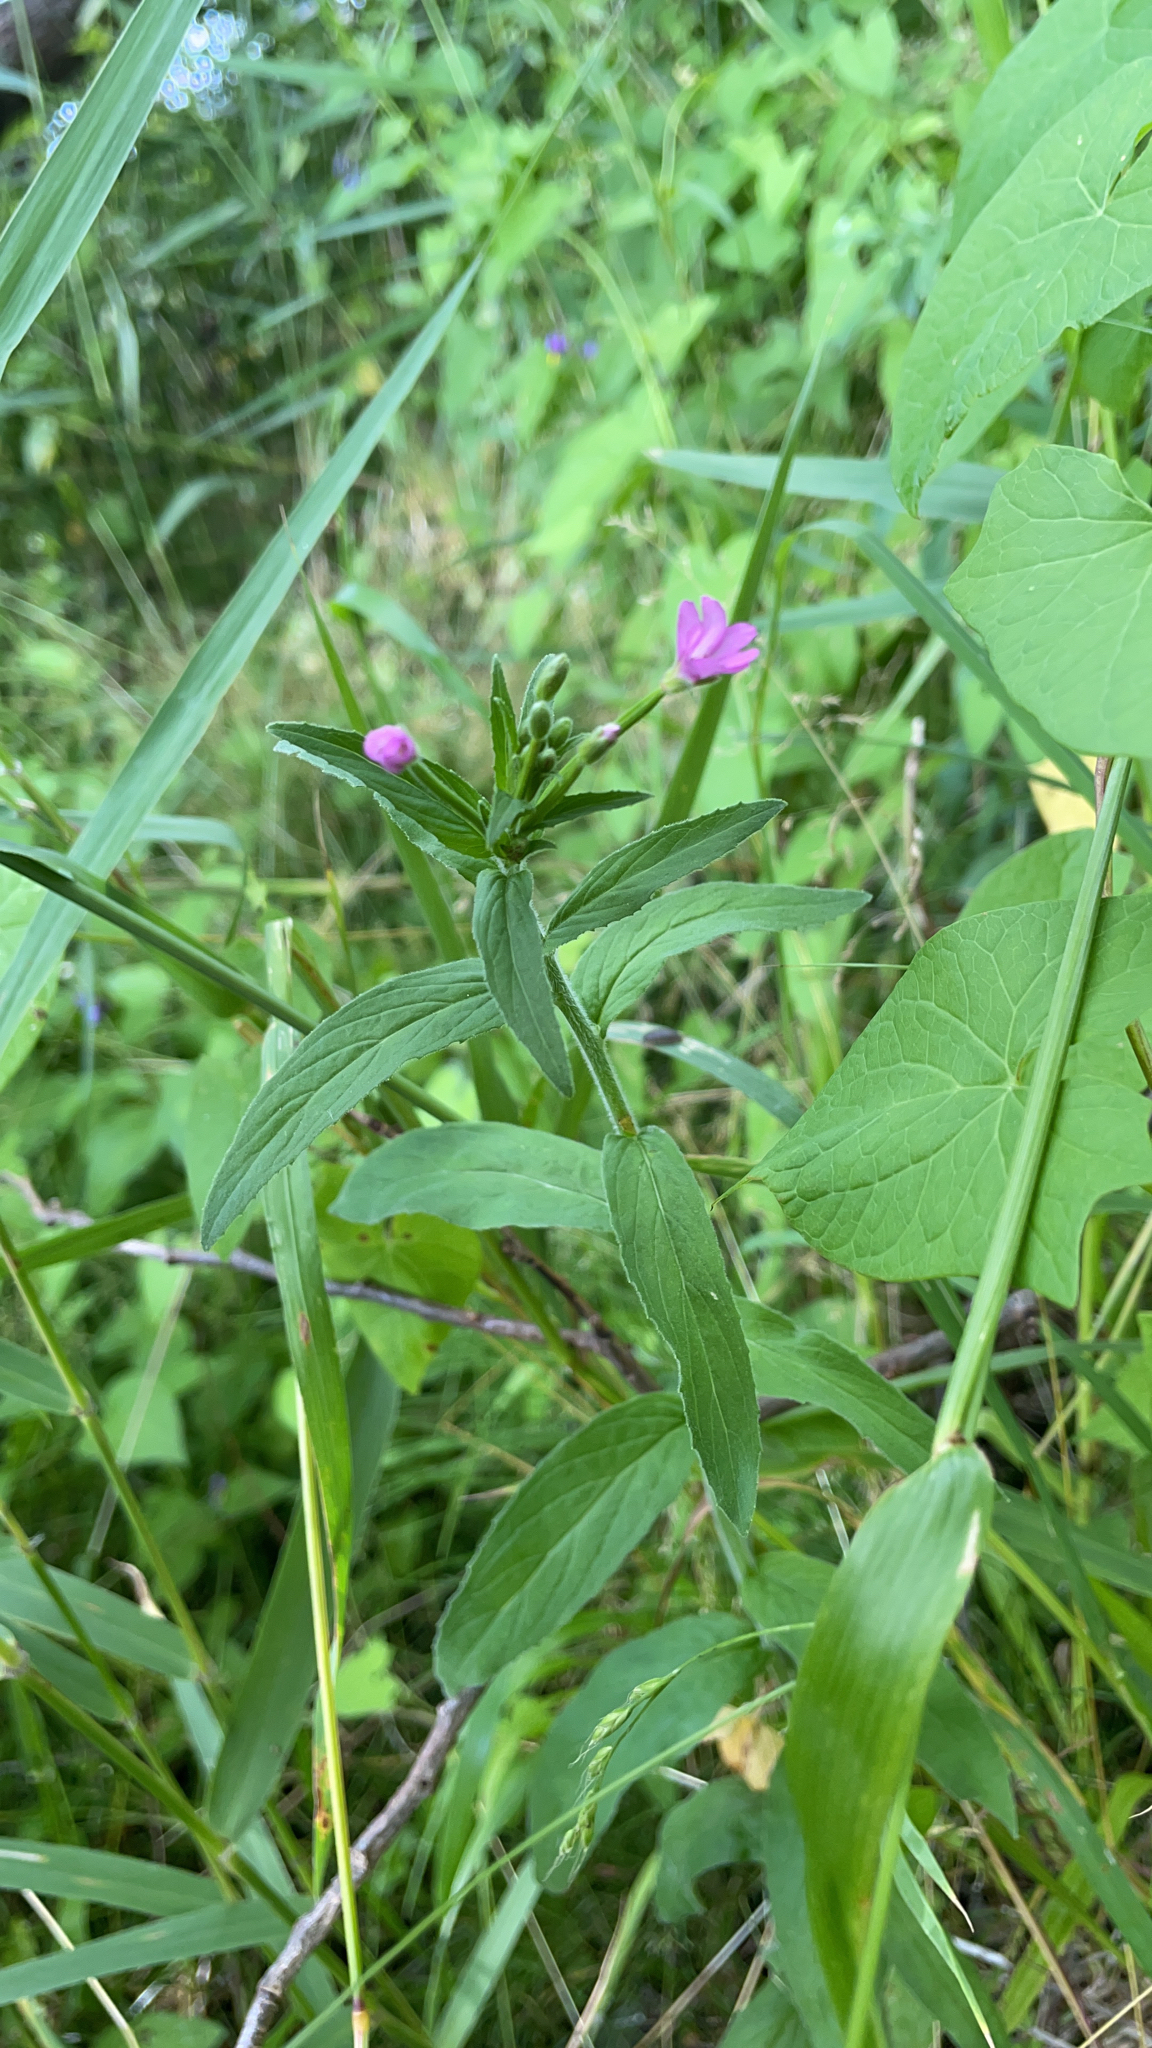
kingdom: Plantae
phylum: Tracheophyta
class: Magnoliopsida
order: Myrtales
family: Onagraceae
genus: Epilobium
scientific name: Epilobium parviflorum
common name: Hoary willowherb
